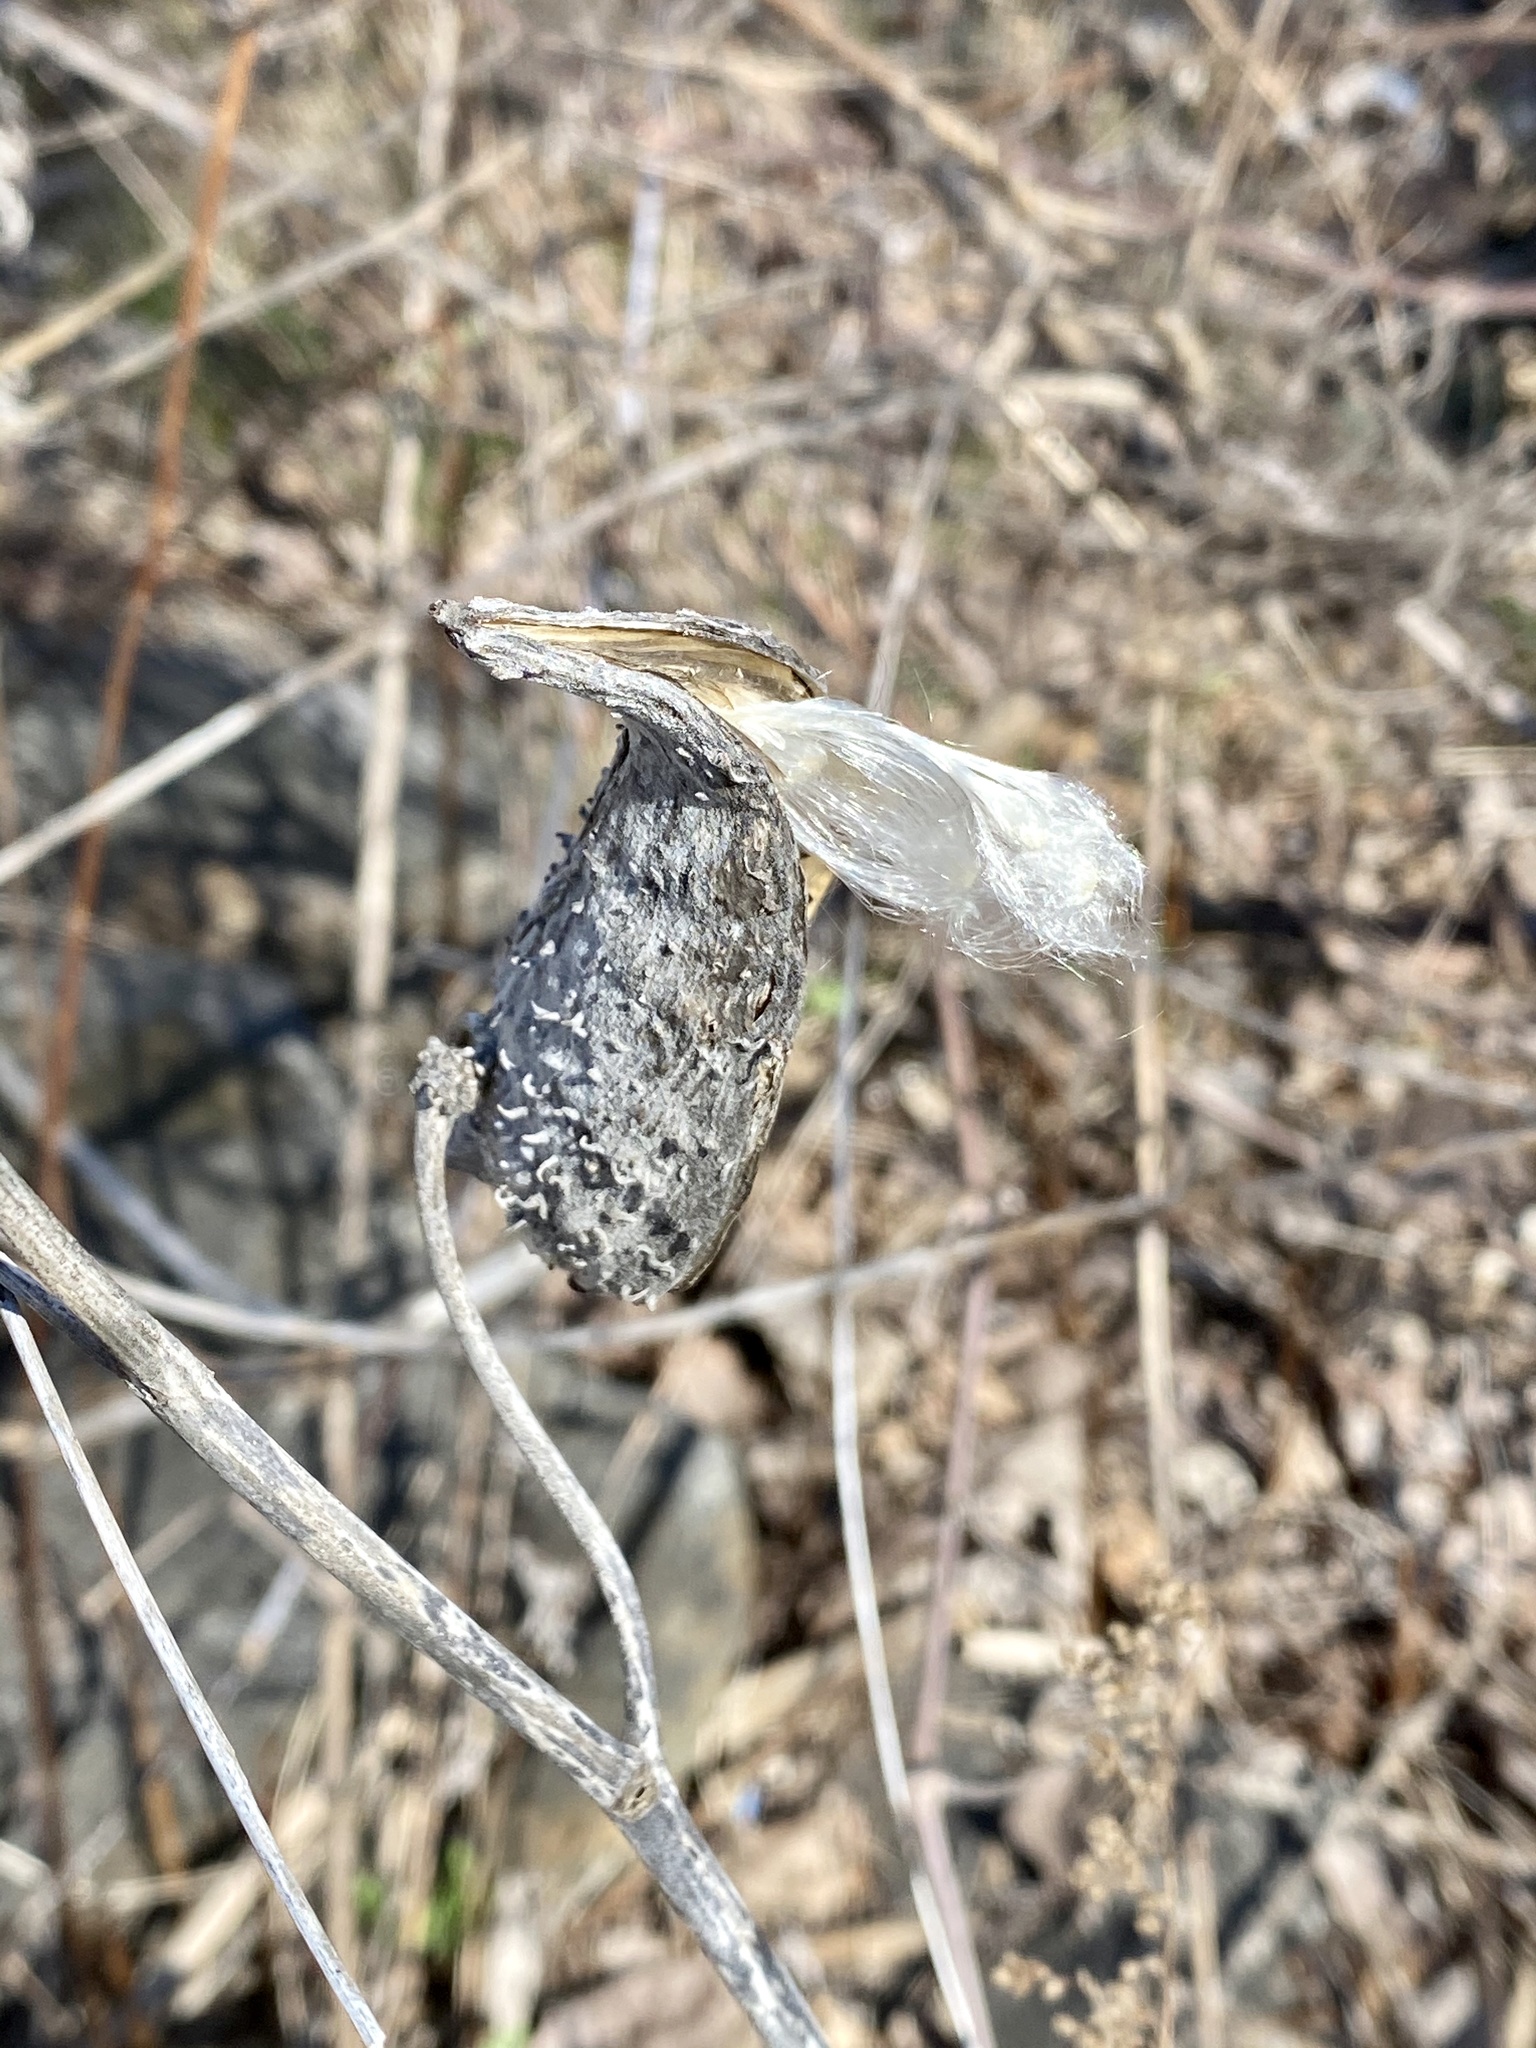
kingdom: Plantae
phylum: Tracheophyta
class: Magnoliopsida
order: Gentianales
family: Apocynaceae
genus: Asclepias
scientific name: Asclepias syriaca
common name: Common milkweed
